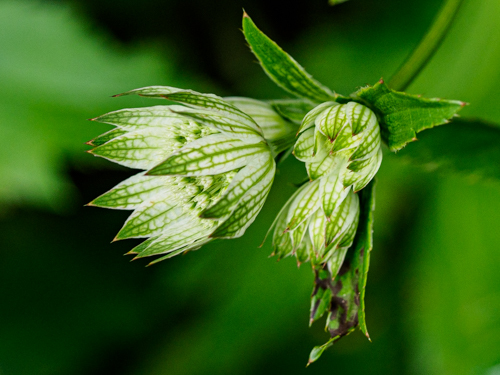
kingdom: Plantae
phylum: Tracheophyta
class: Magnoliopsida
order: Apiales
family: Apiaceae
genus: Astrantia
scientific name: Astrantia major
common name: Greater masterwort
